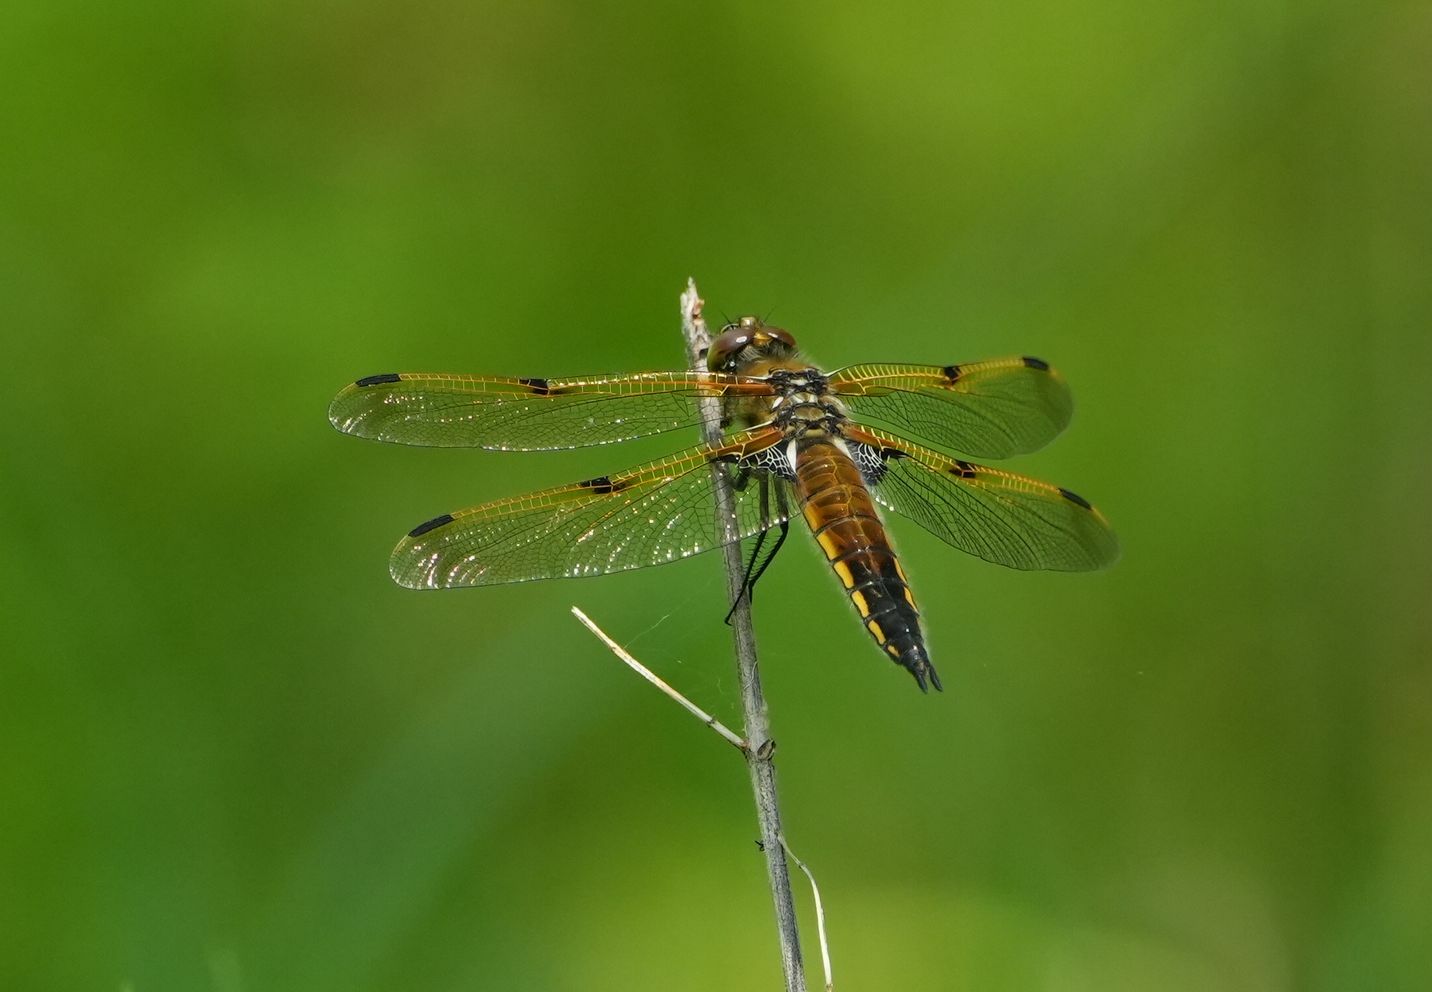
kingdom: Animalia
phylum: Arthropoda
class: Insecta
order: Odonata
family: Libellulidae
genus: Libellula
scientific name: Libellula quadrimaculata
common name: Four-spotted chaser
